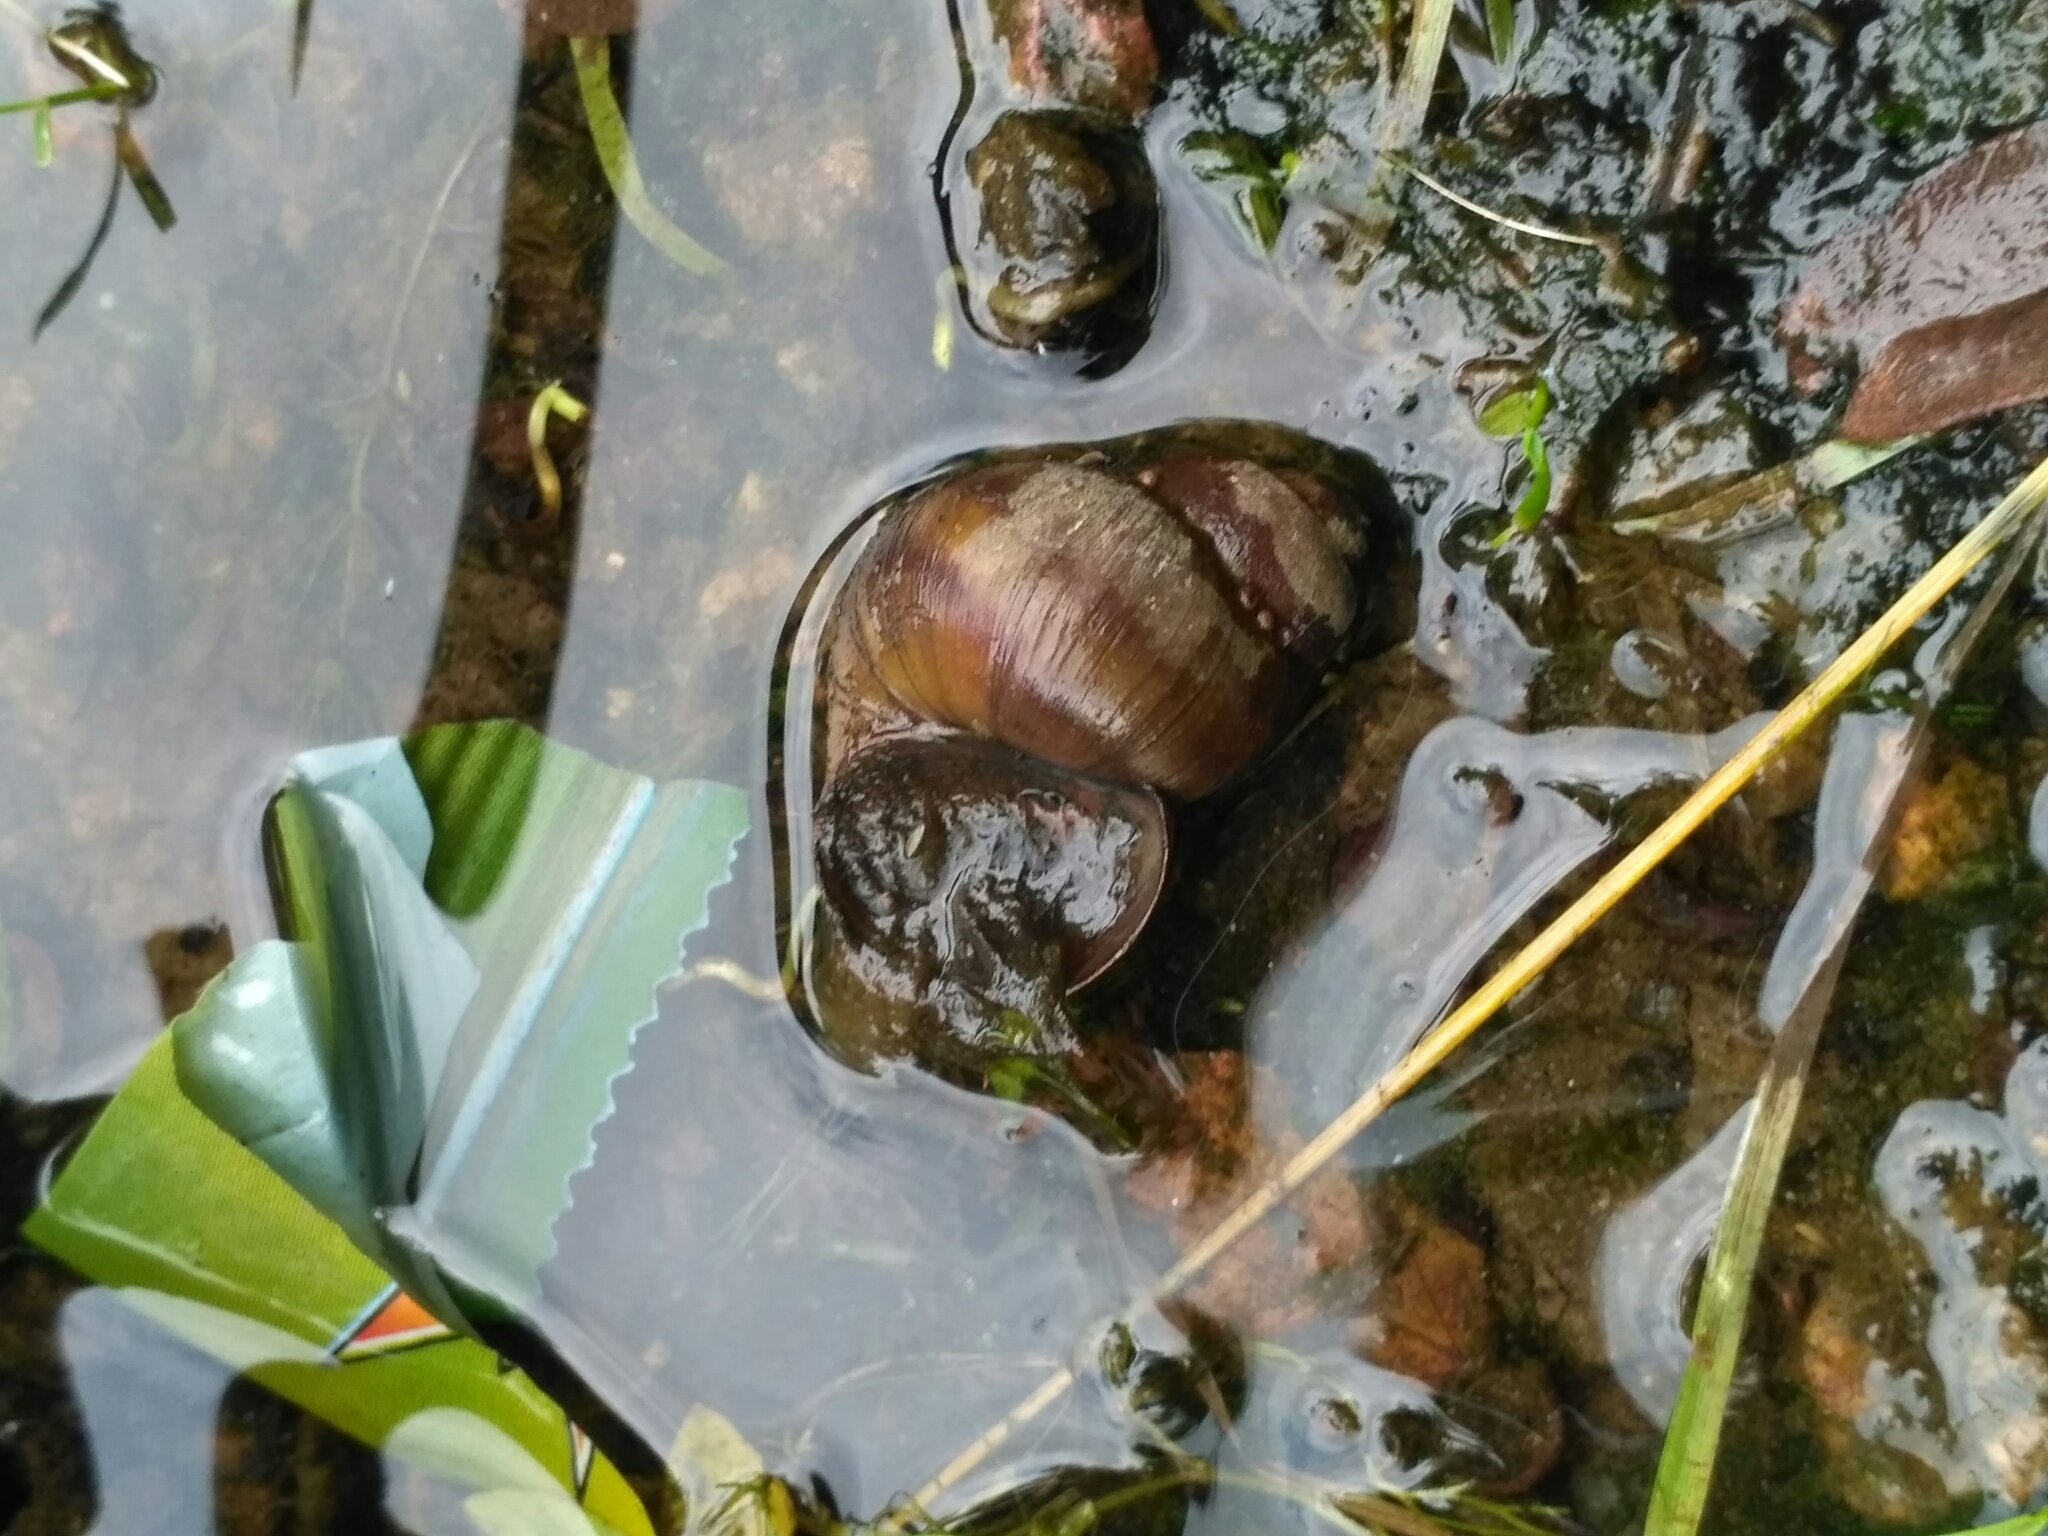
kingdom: Animalia
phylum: Mollusca
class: Gastropoda
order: Architaenioglossa
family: Viviparidae
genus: Viviparus
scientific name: Viviparus viviparus
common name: River snail
